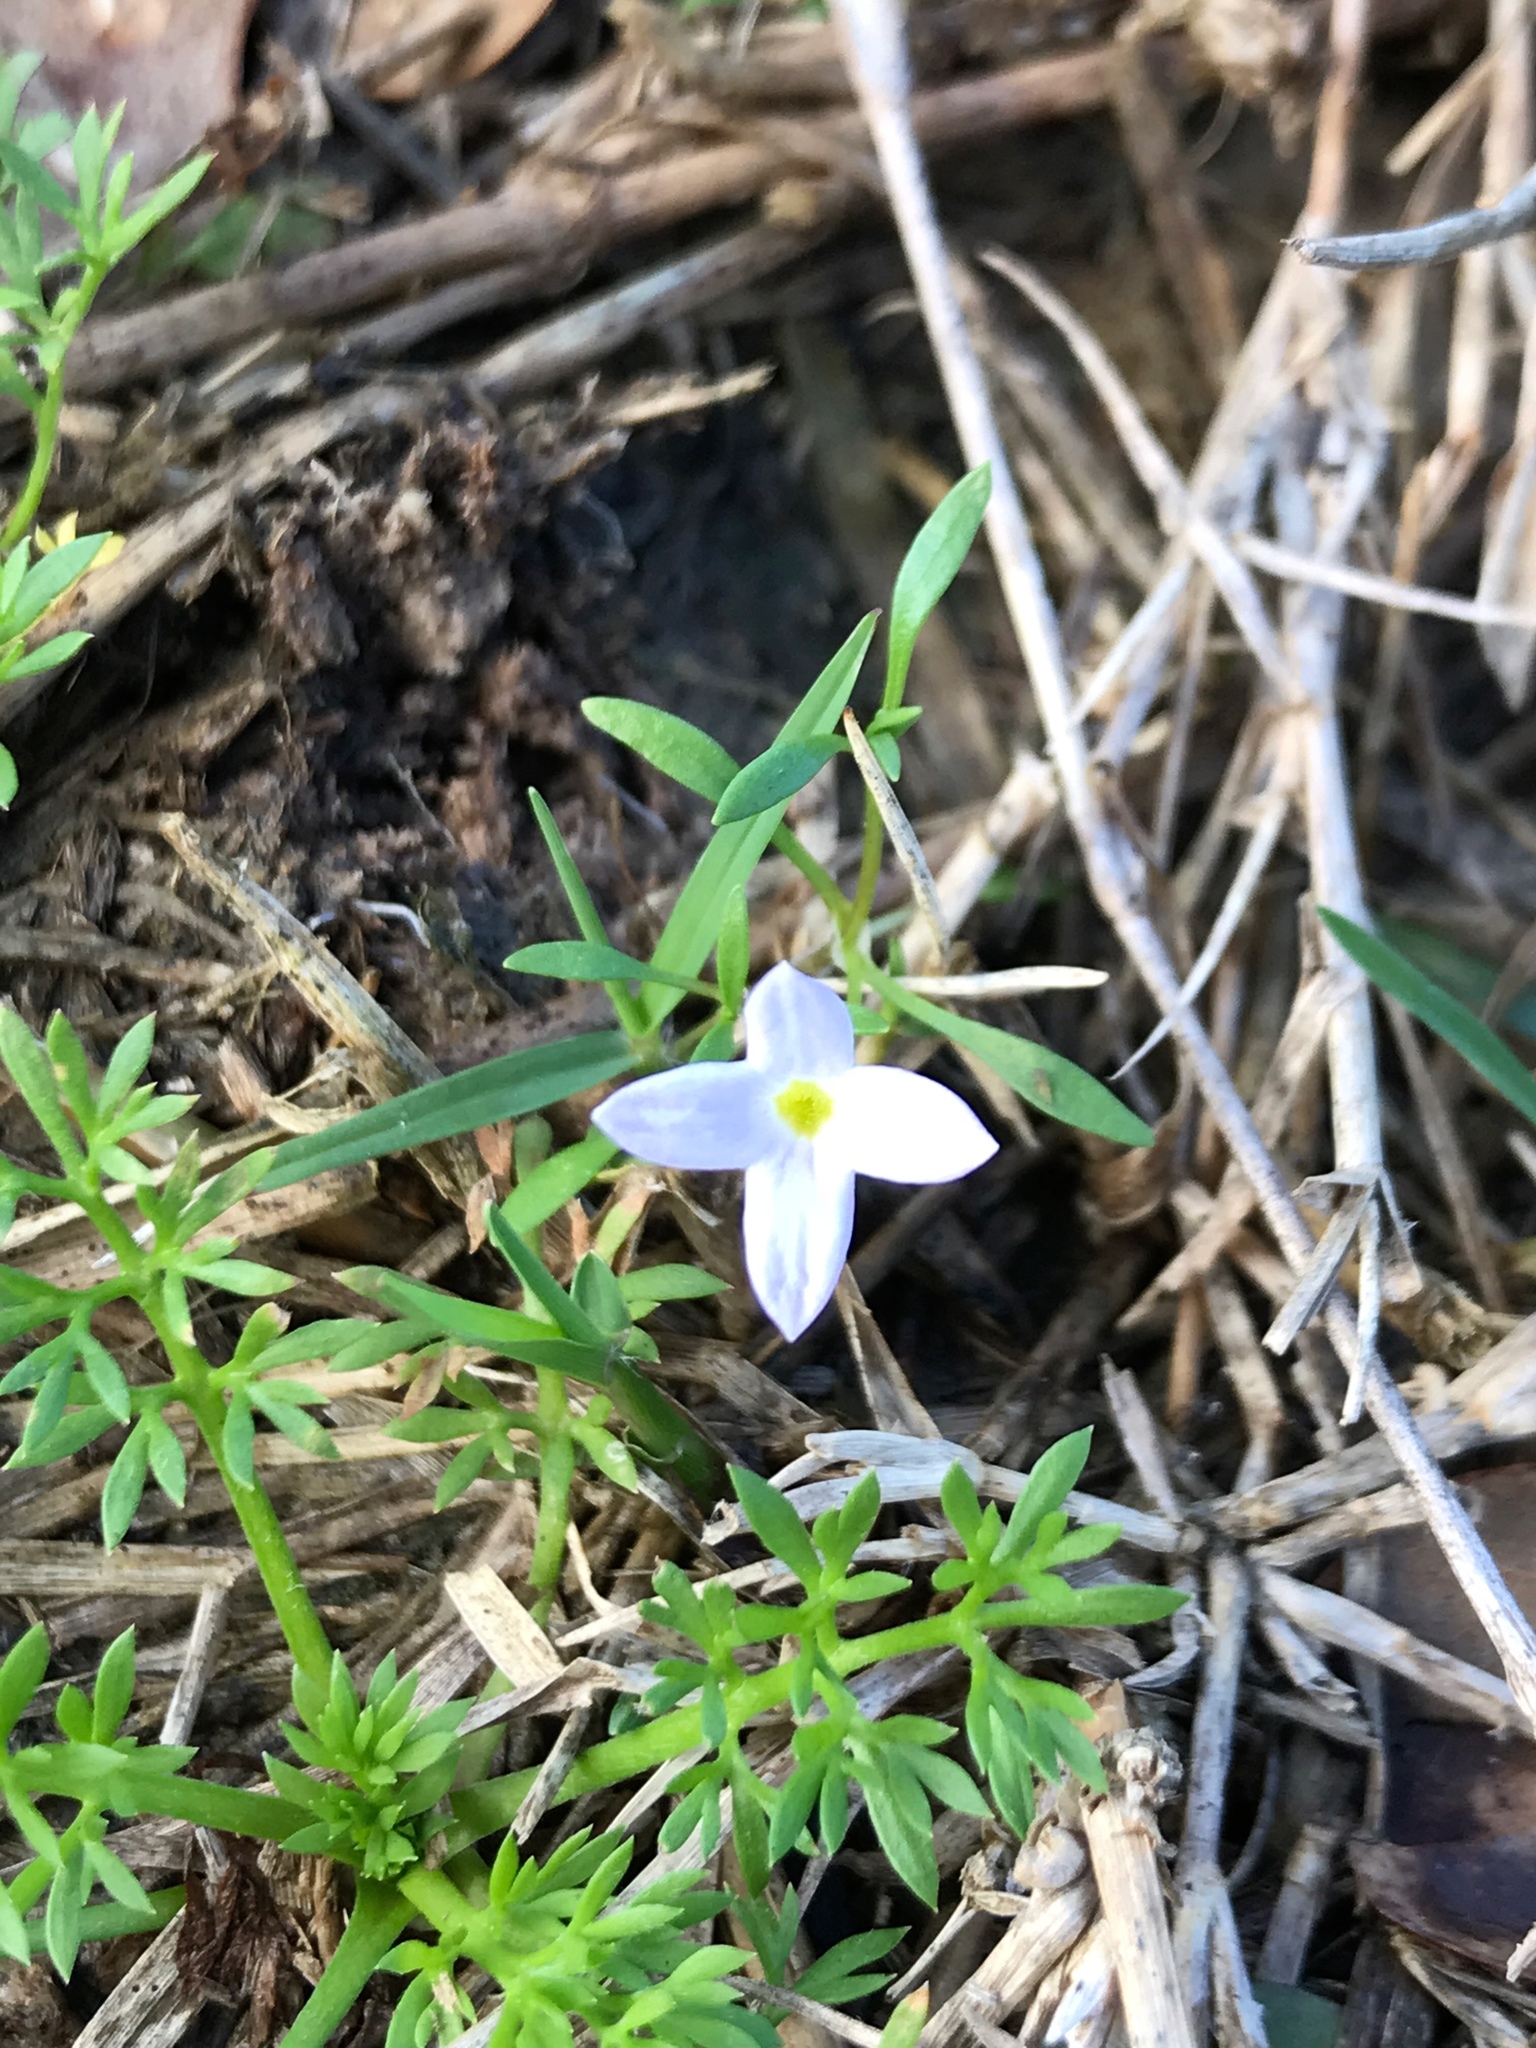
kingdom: Plantae
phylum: Tracheophyta
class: Magnoliopsida
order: Gentianales
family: Rubiaceae
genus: Houstonia
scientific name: Houstonia rosea
